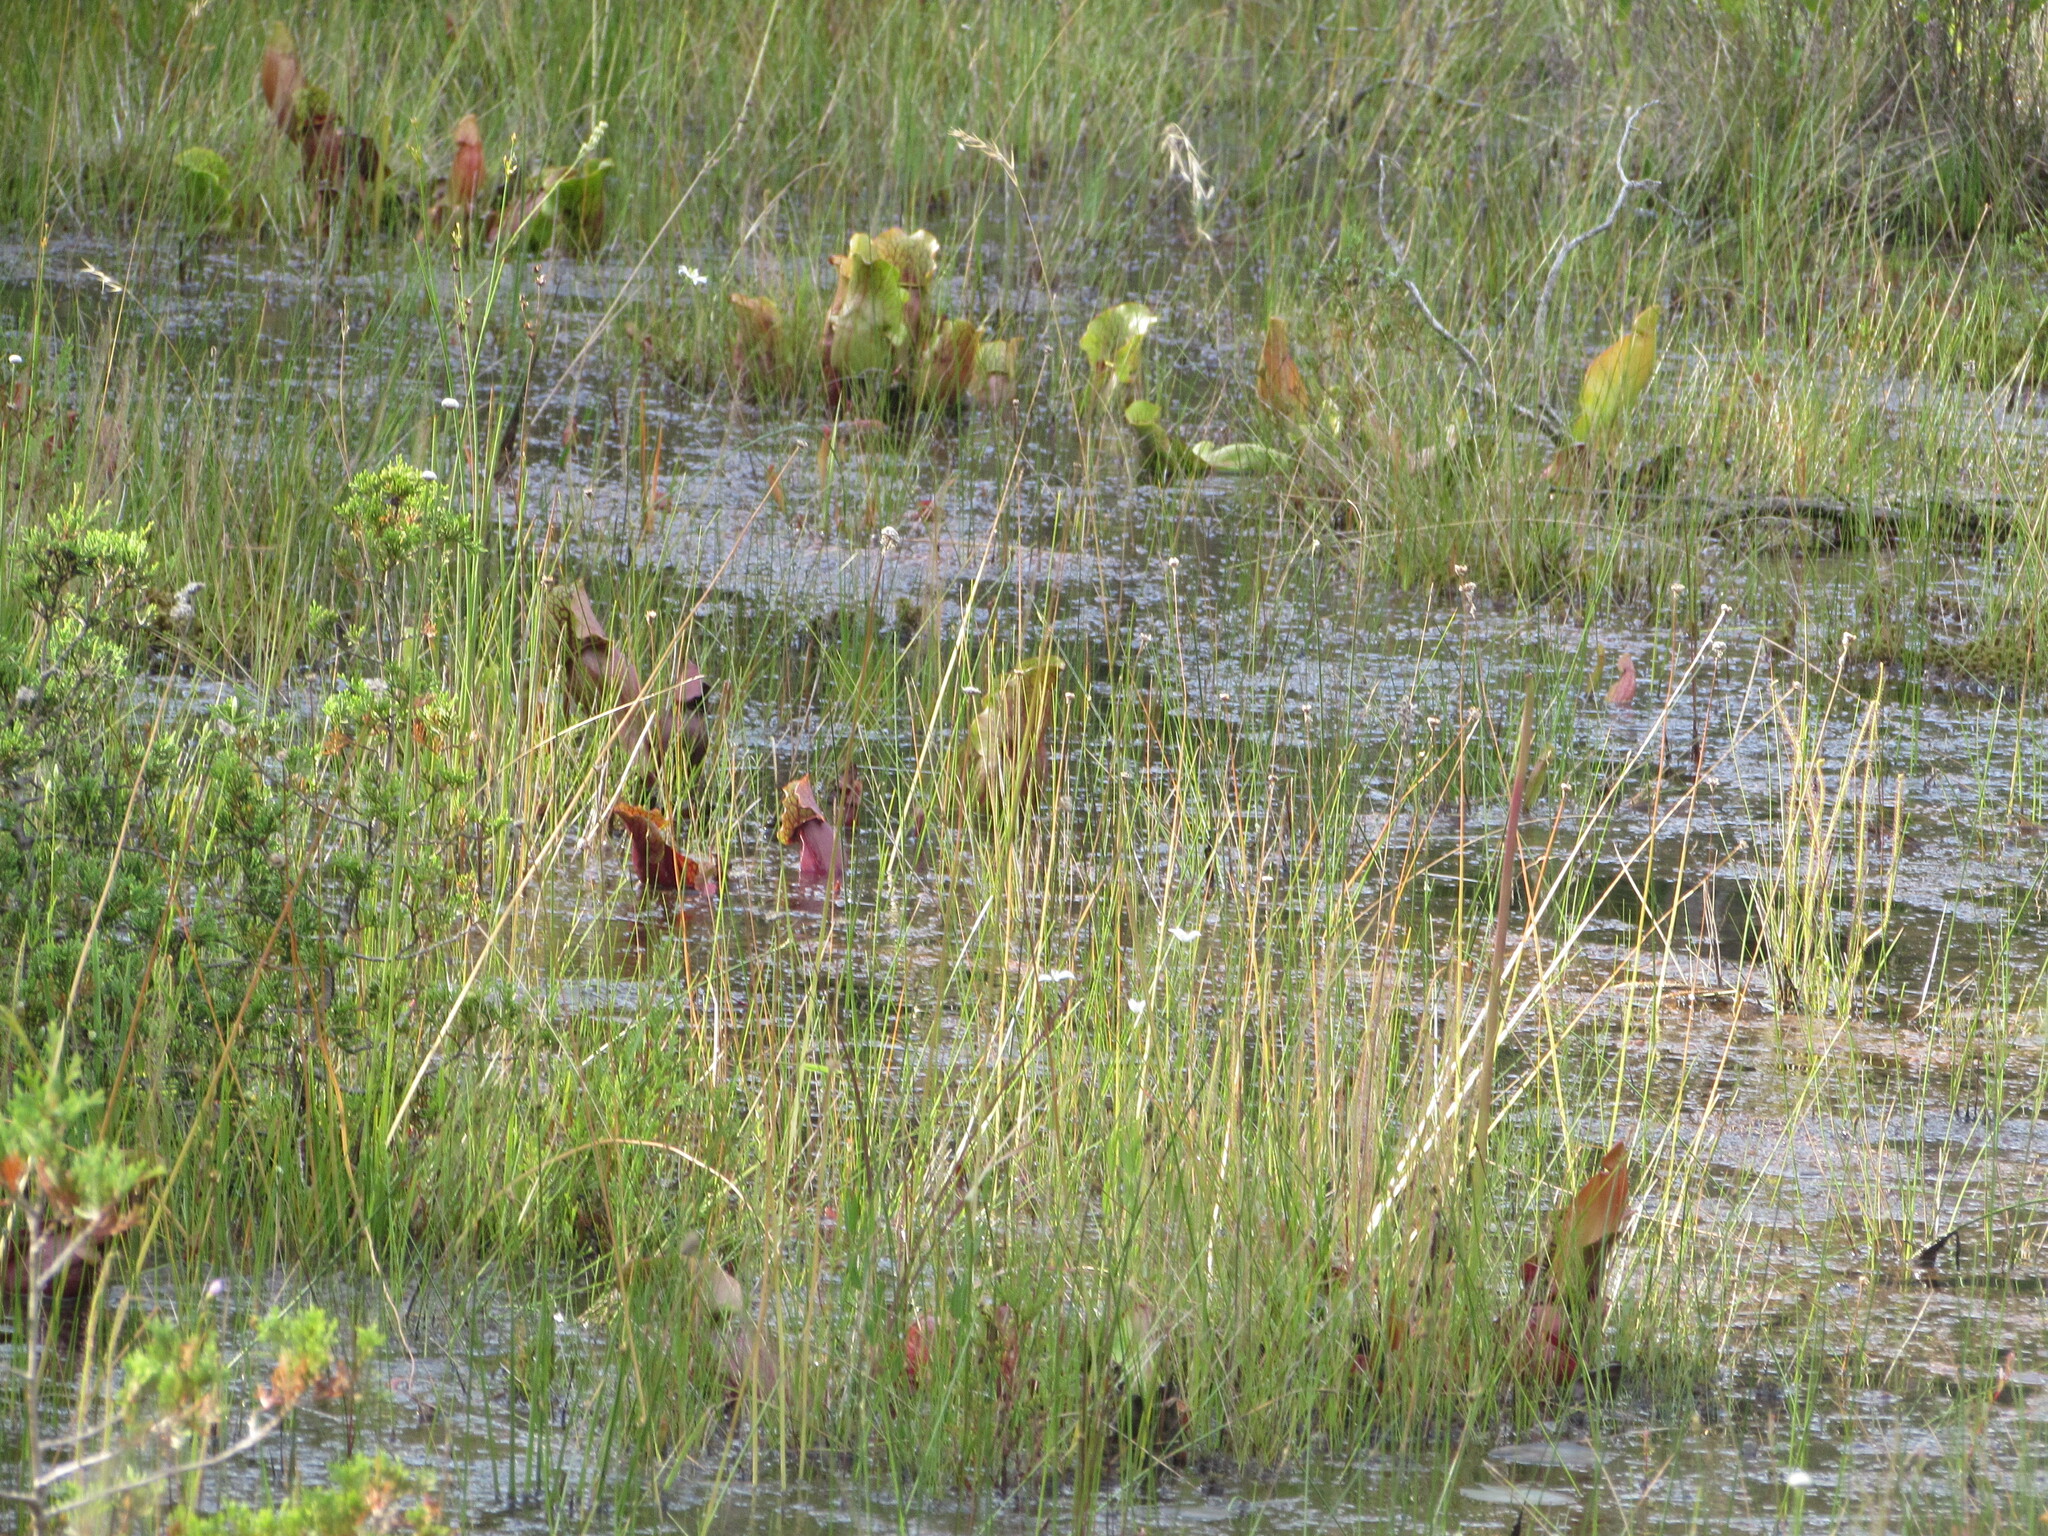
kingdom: Plantae
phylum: Tracheophyta
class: Magnoliopsida
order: Ericales
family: Sarraceniaceae
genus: Sarracenia
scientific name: Sarracenia purpurea
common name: Pitcherplant
